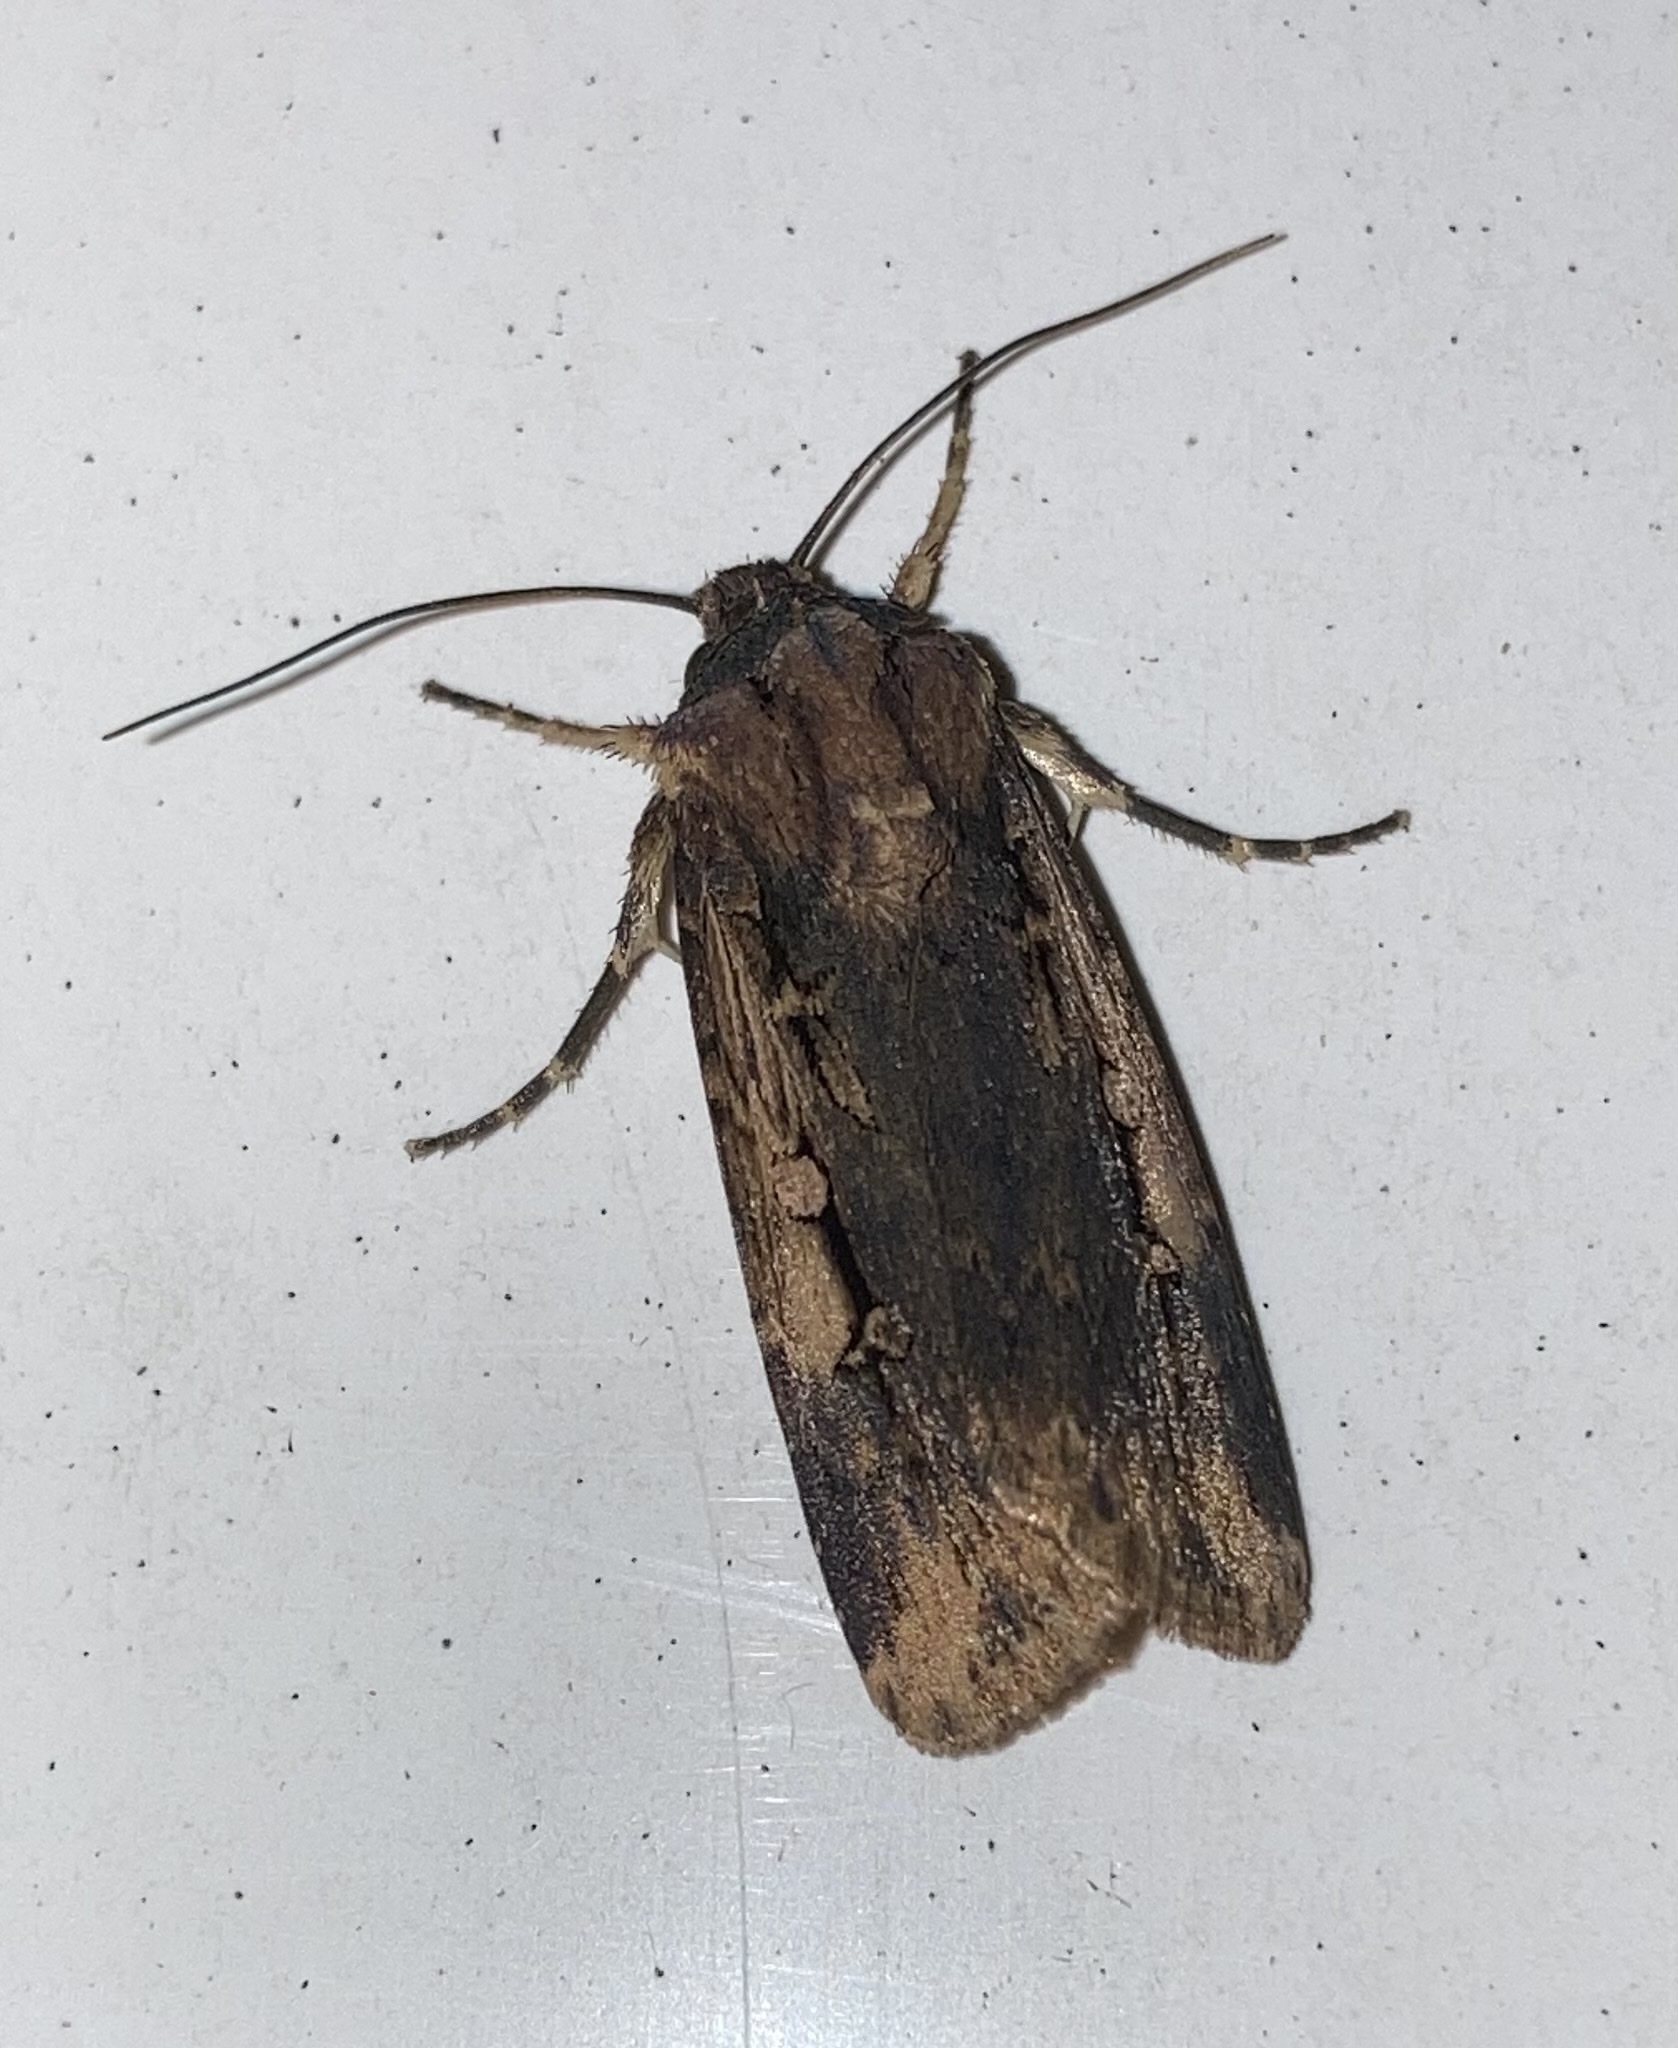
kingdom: Animalia
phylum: Arthropoda
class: Insecta
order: Lepidoptera
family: Noctuidae
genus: Feltia
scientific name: Feltia subterranea
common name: Granulate cutworm
